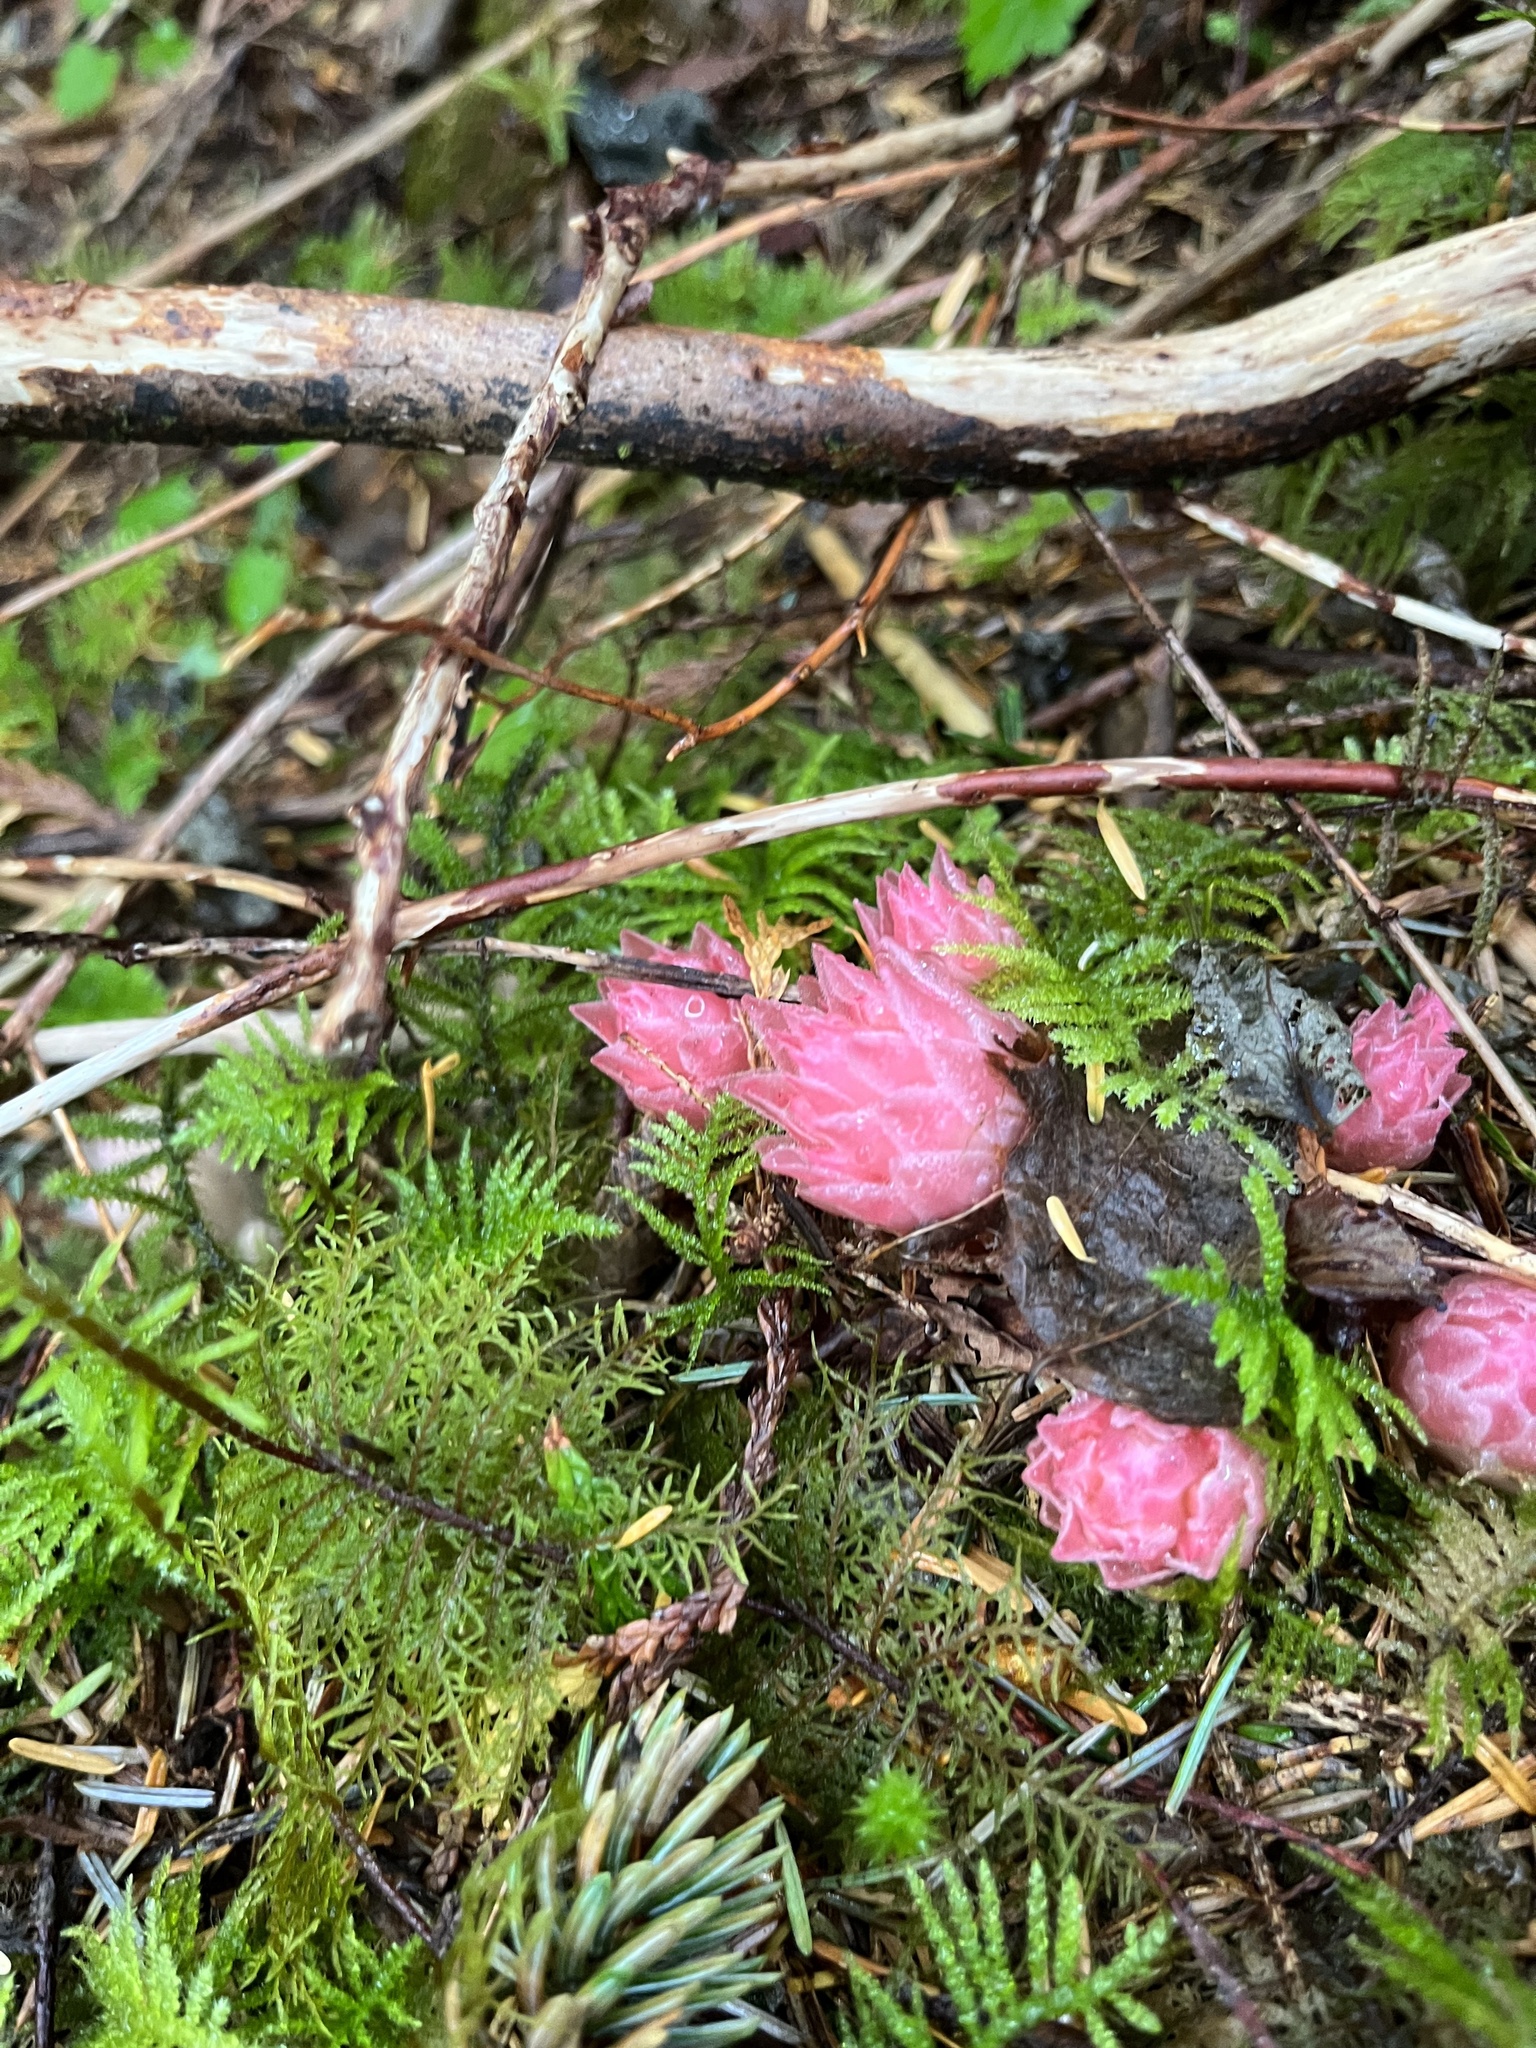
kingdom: Plantae
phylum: Tracheophyta
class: Magnoliopsida
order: Ericales
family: Ericaceae
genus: Hemitomes
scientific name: Hemitomes congestum
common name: Cone plant
